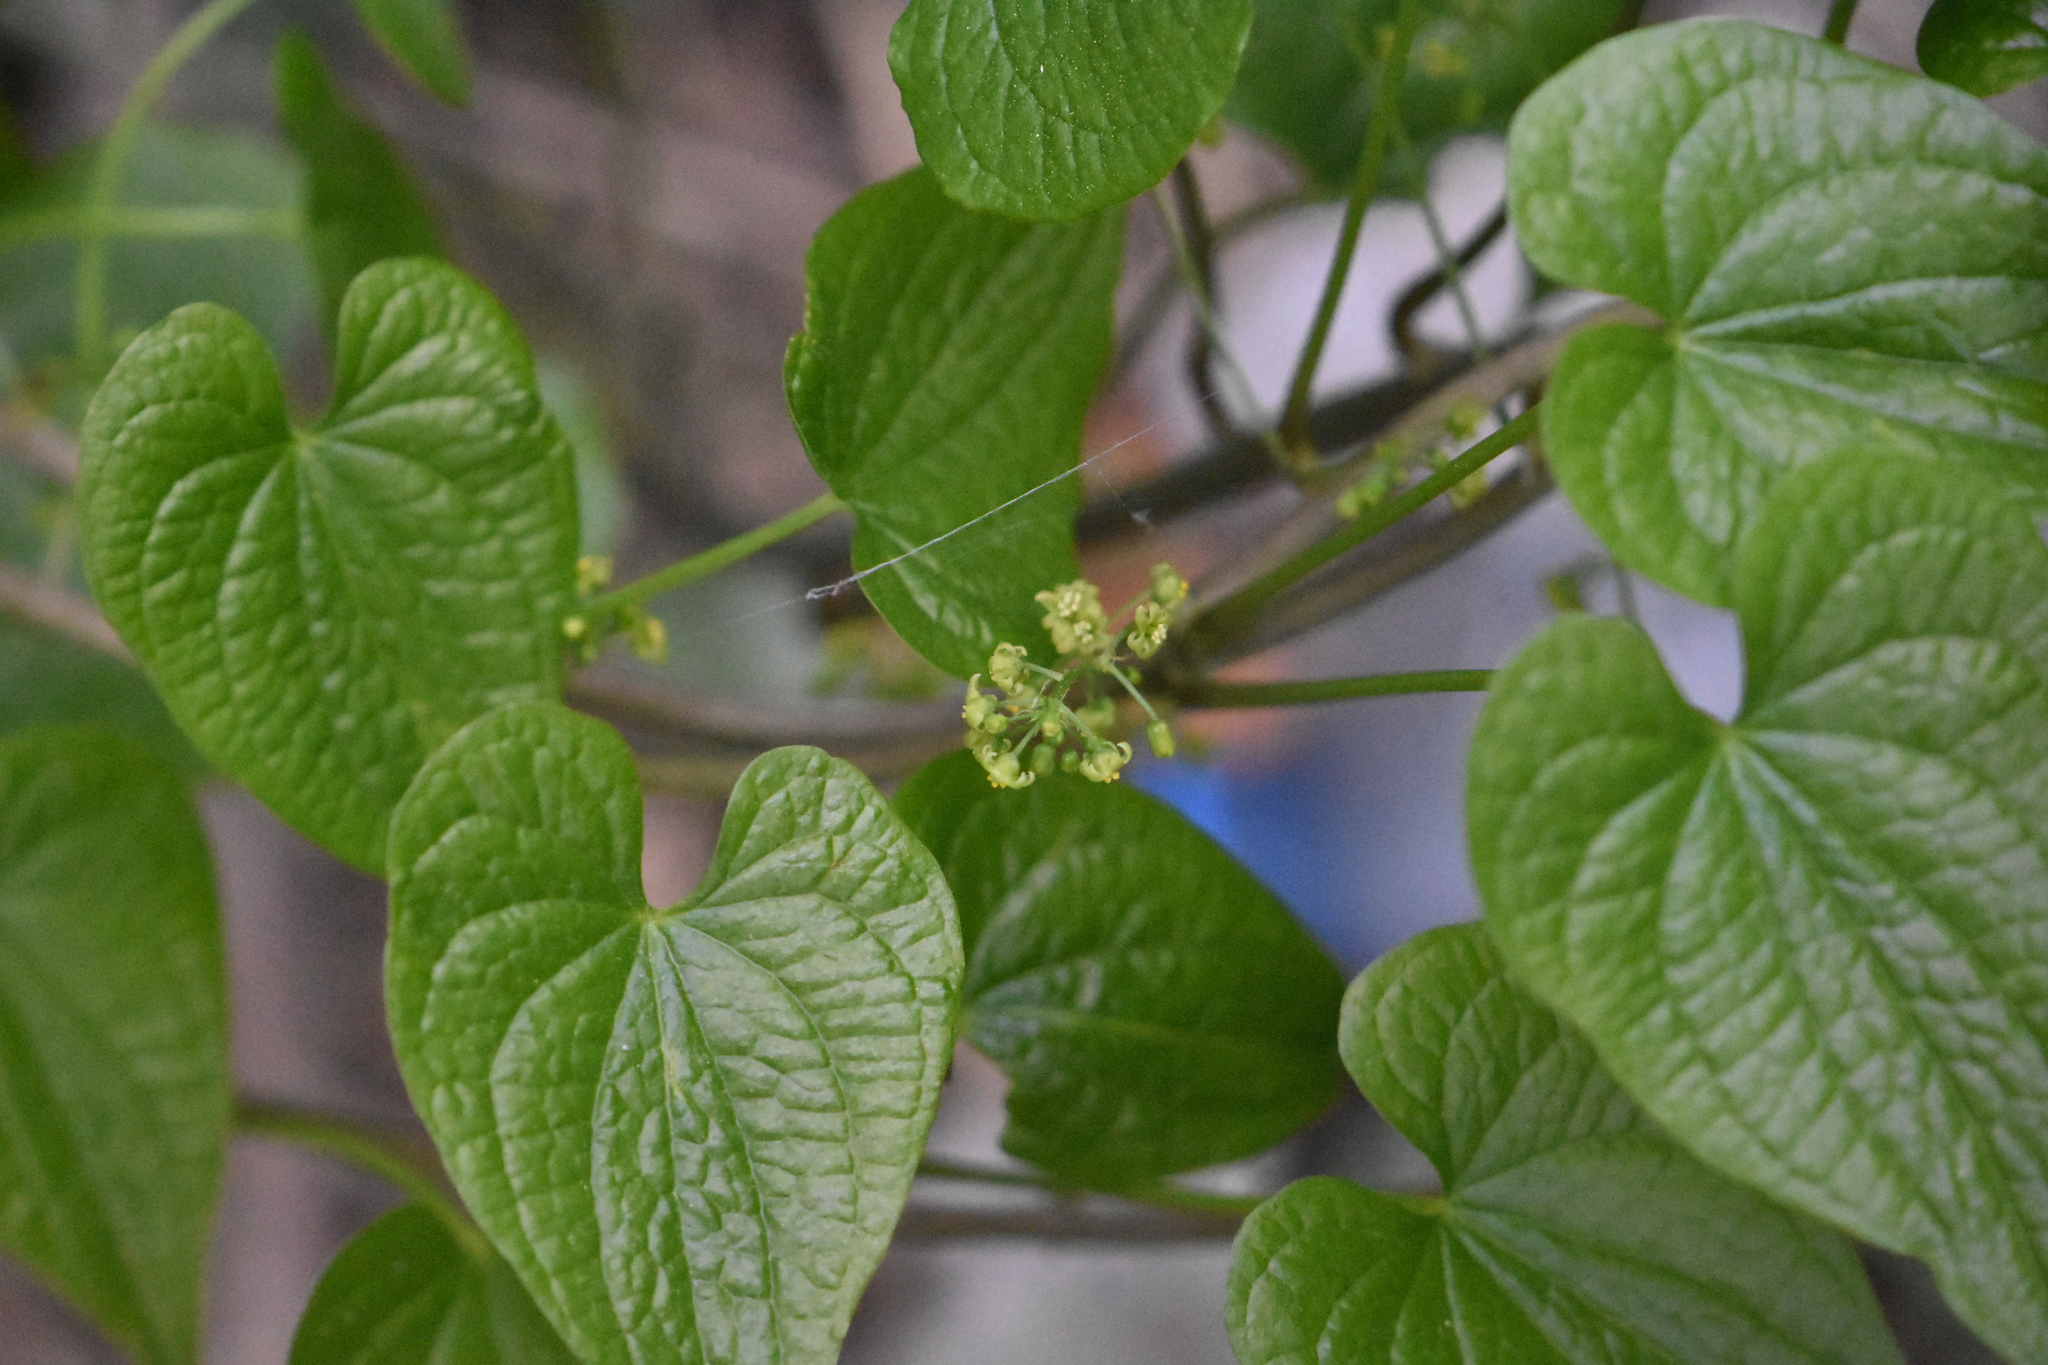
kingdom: Plantae
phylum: Tracheophyta
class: Liliopsida
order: Dioscoreales
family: Dioscoreaceae
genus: Dioscorea
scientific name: Dioscorea communis
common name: Black-bindweed
